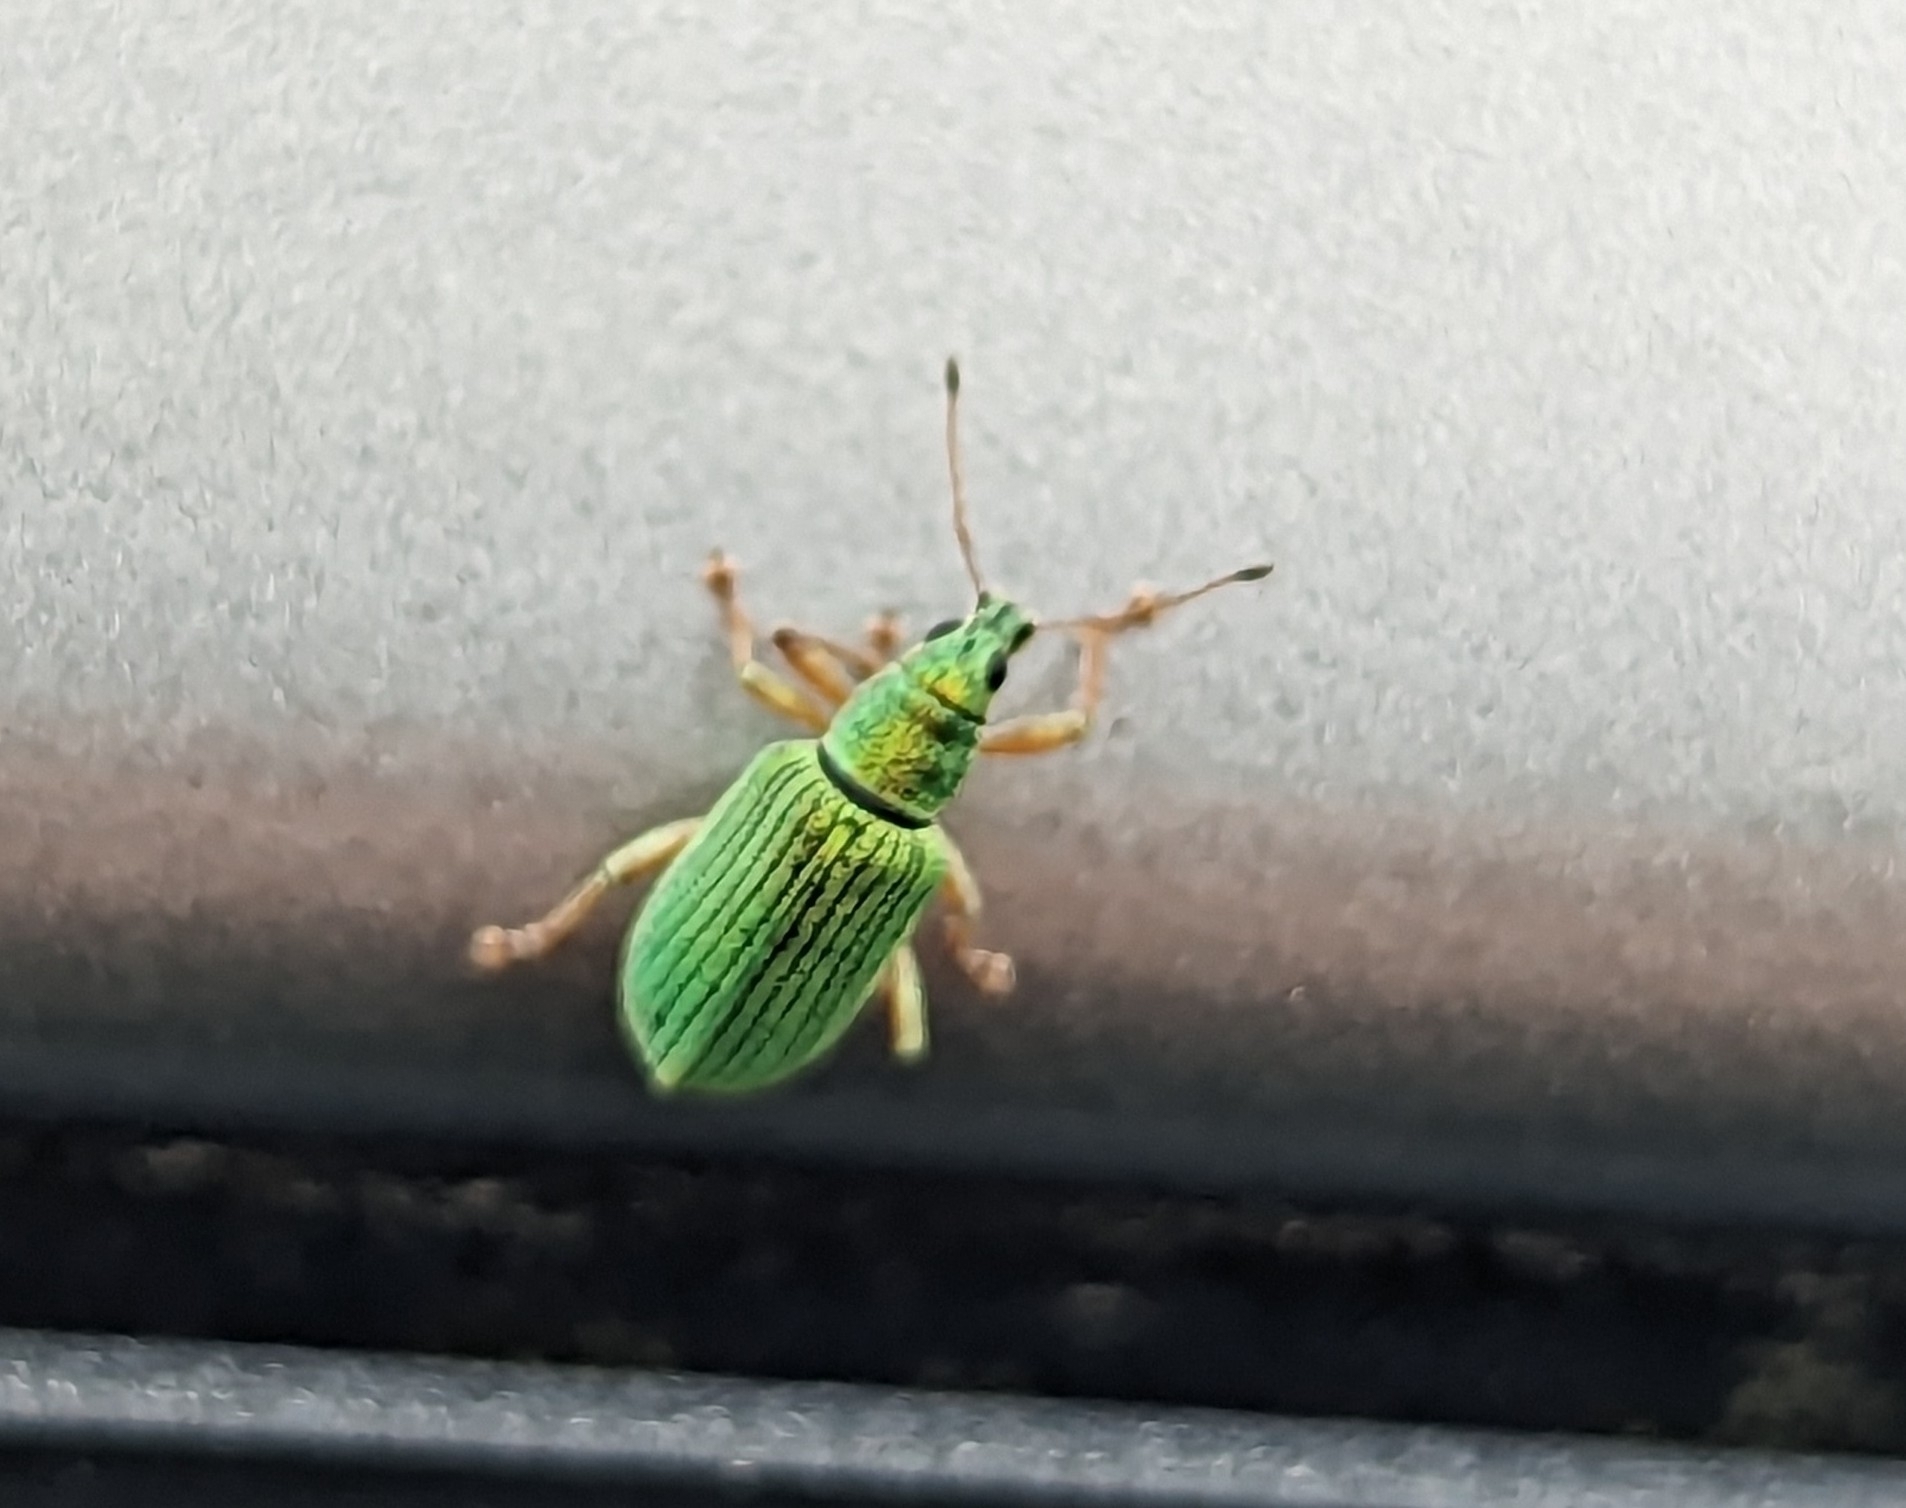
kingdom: Animalia
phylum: Arthropoda
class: Insecta
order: Coleoptera
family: Curculionidae
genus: Polydrusus
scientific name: Polydrusus formosus
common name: Weevil
